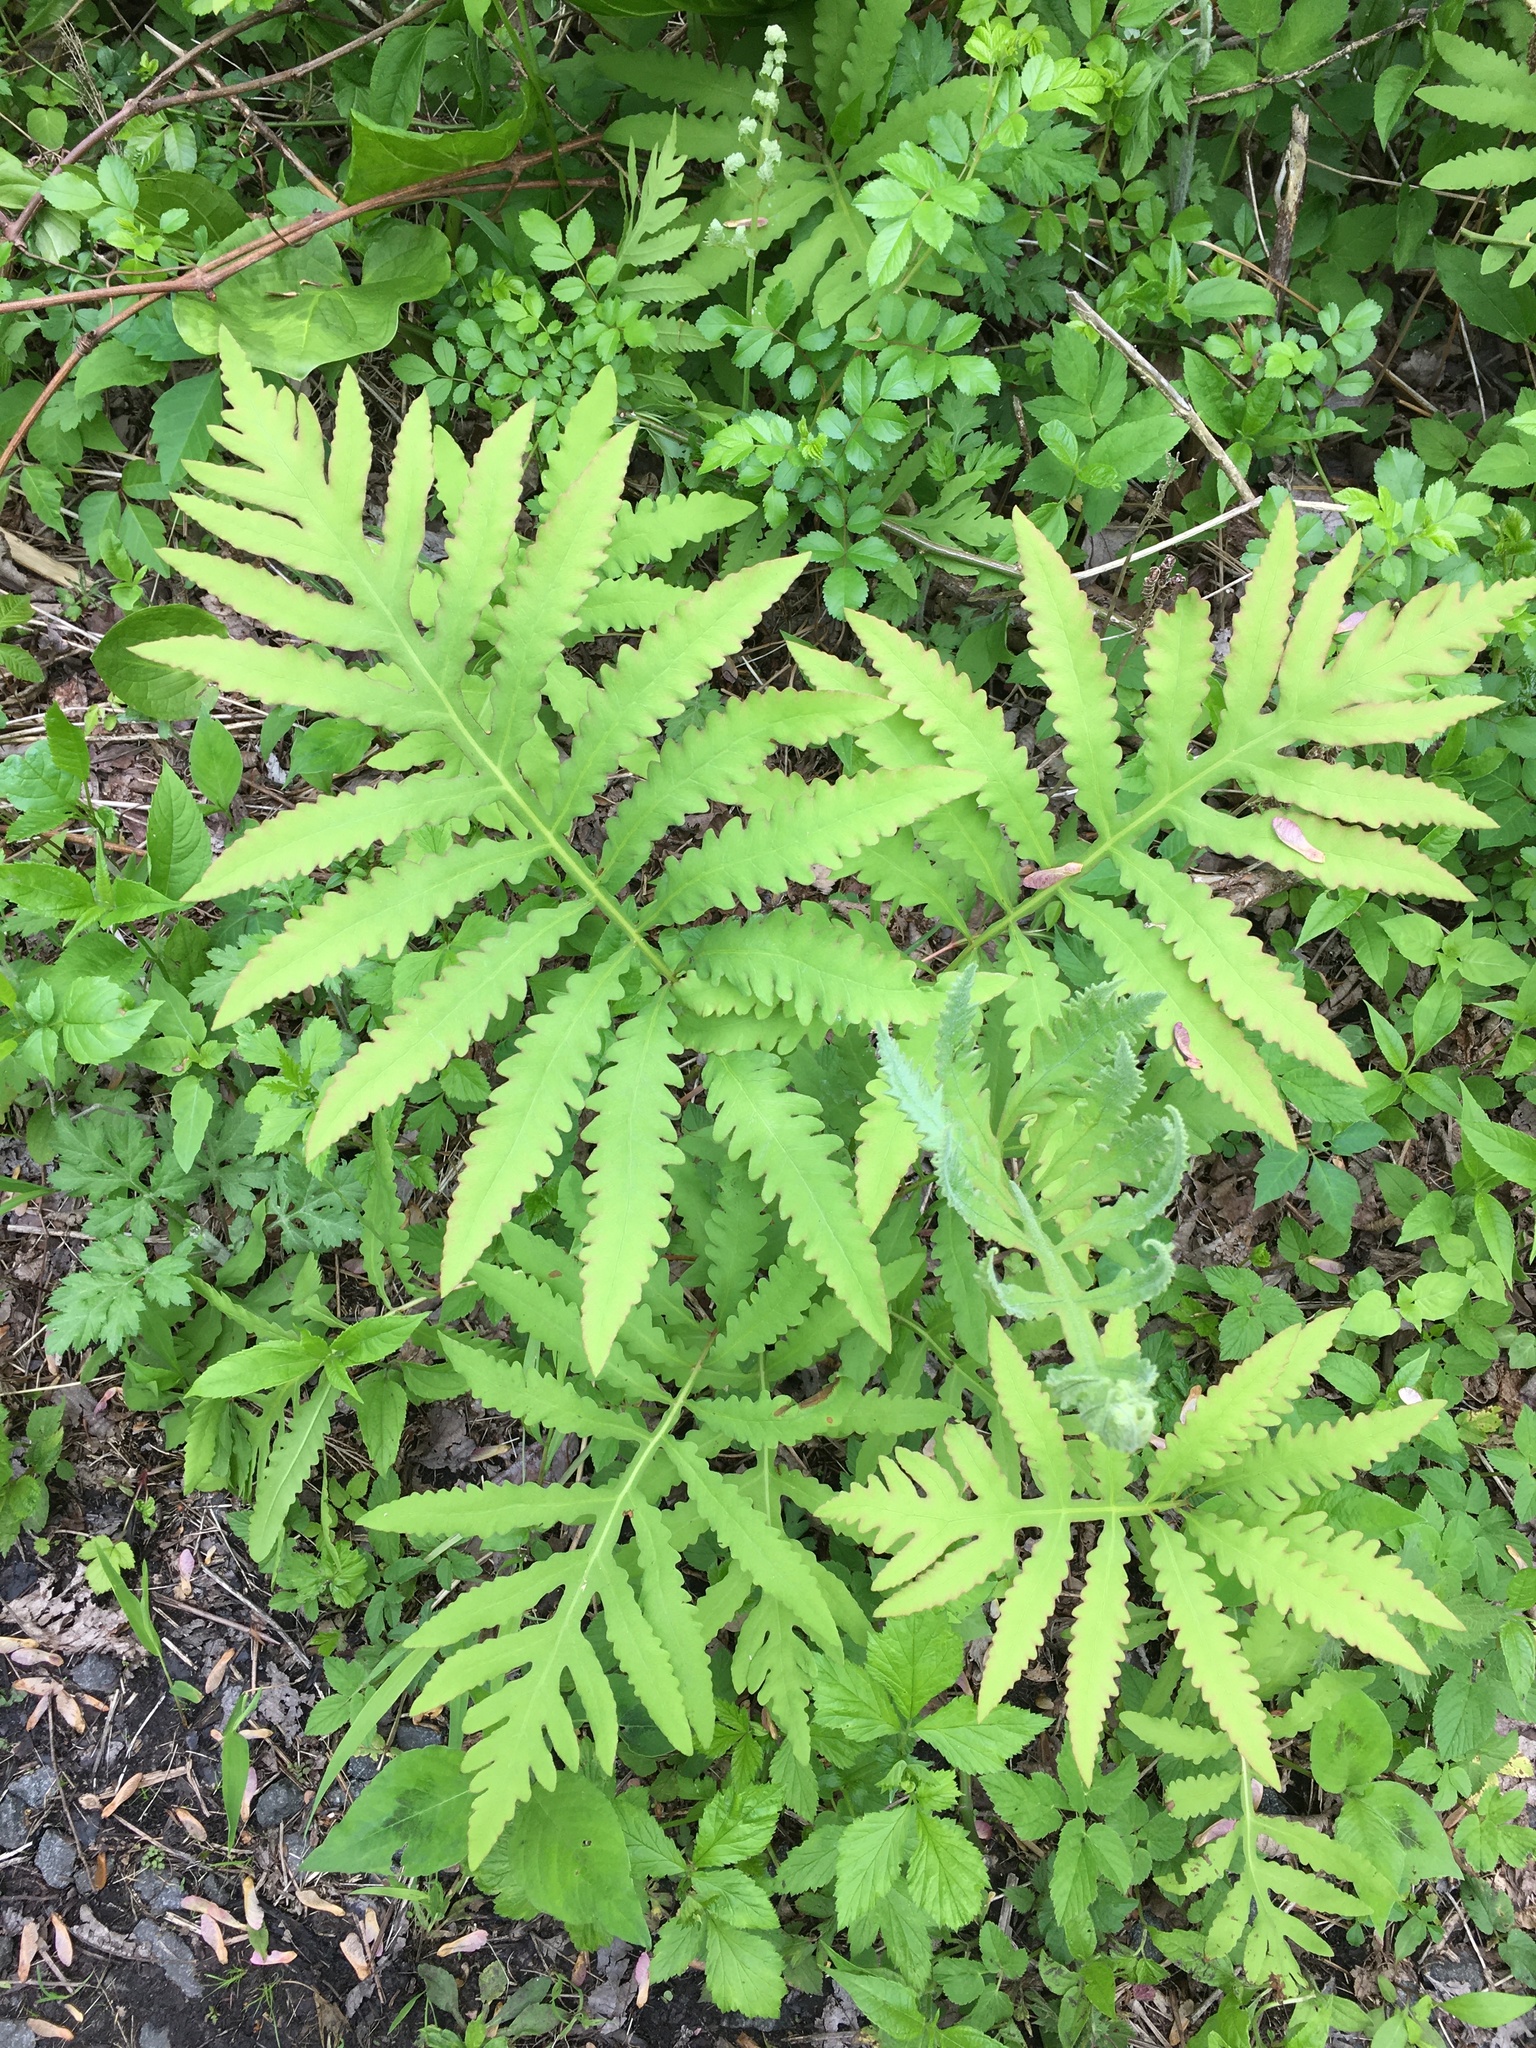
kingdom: Plantae
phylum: Tracheophyta
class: Polypodiopsida
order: Polypodiales
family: Onocleaceae
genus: Onoclea
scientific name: Onoclea sensibilis
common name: Sensitive fern
